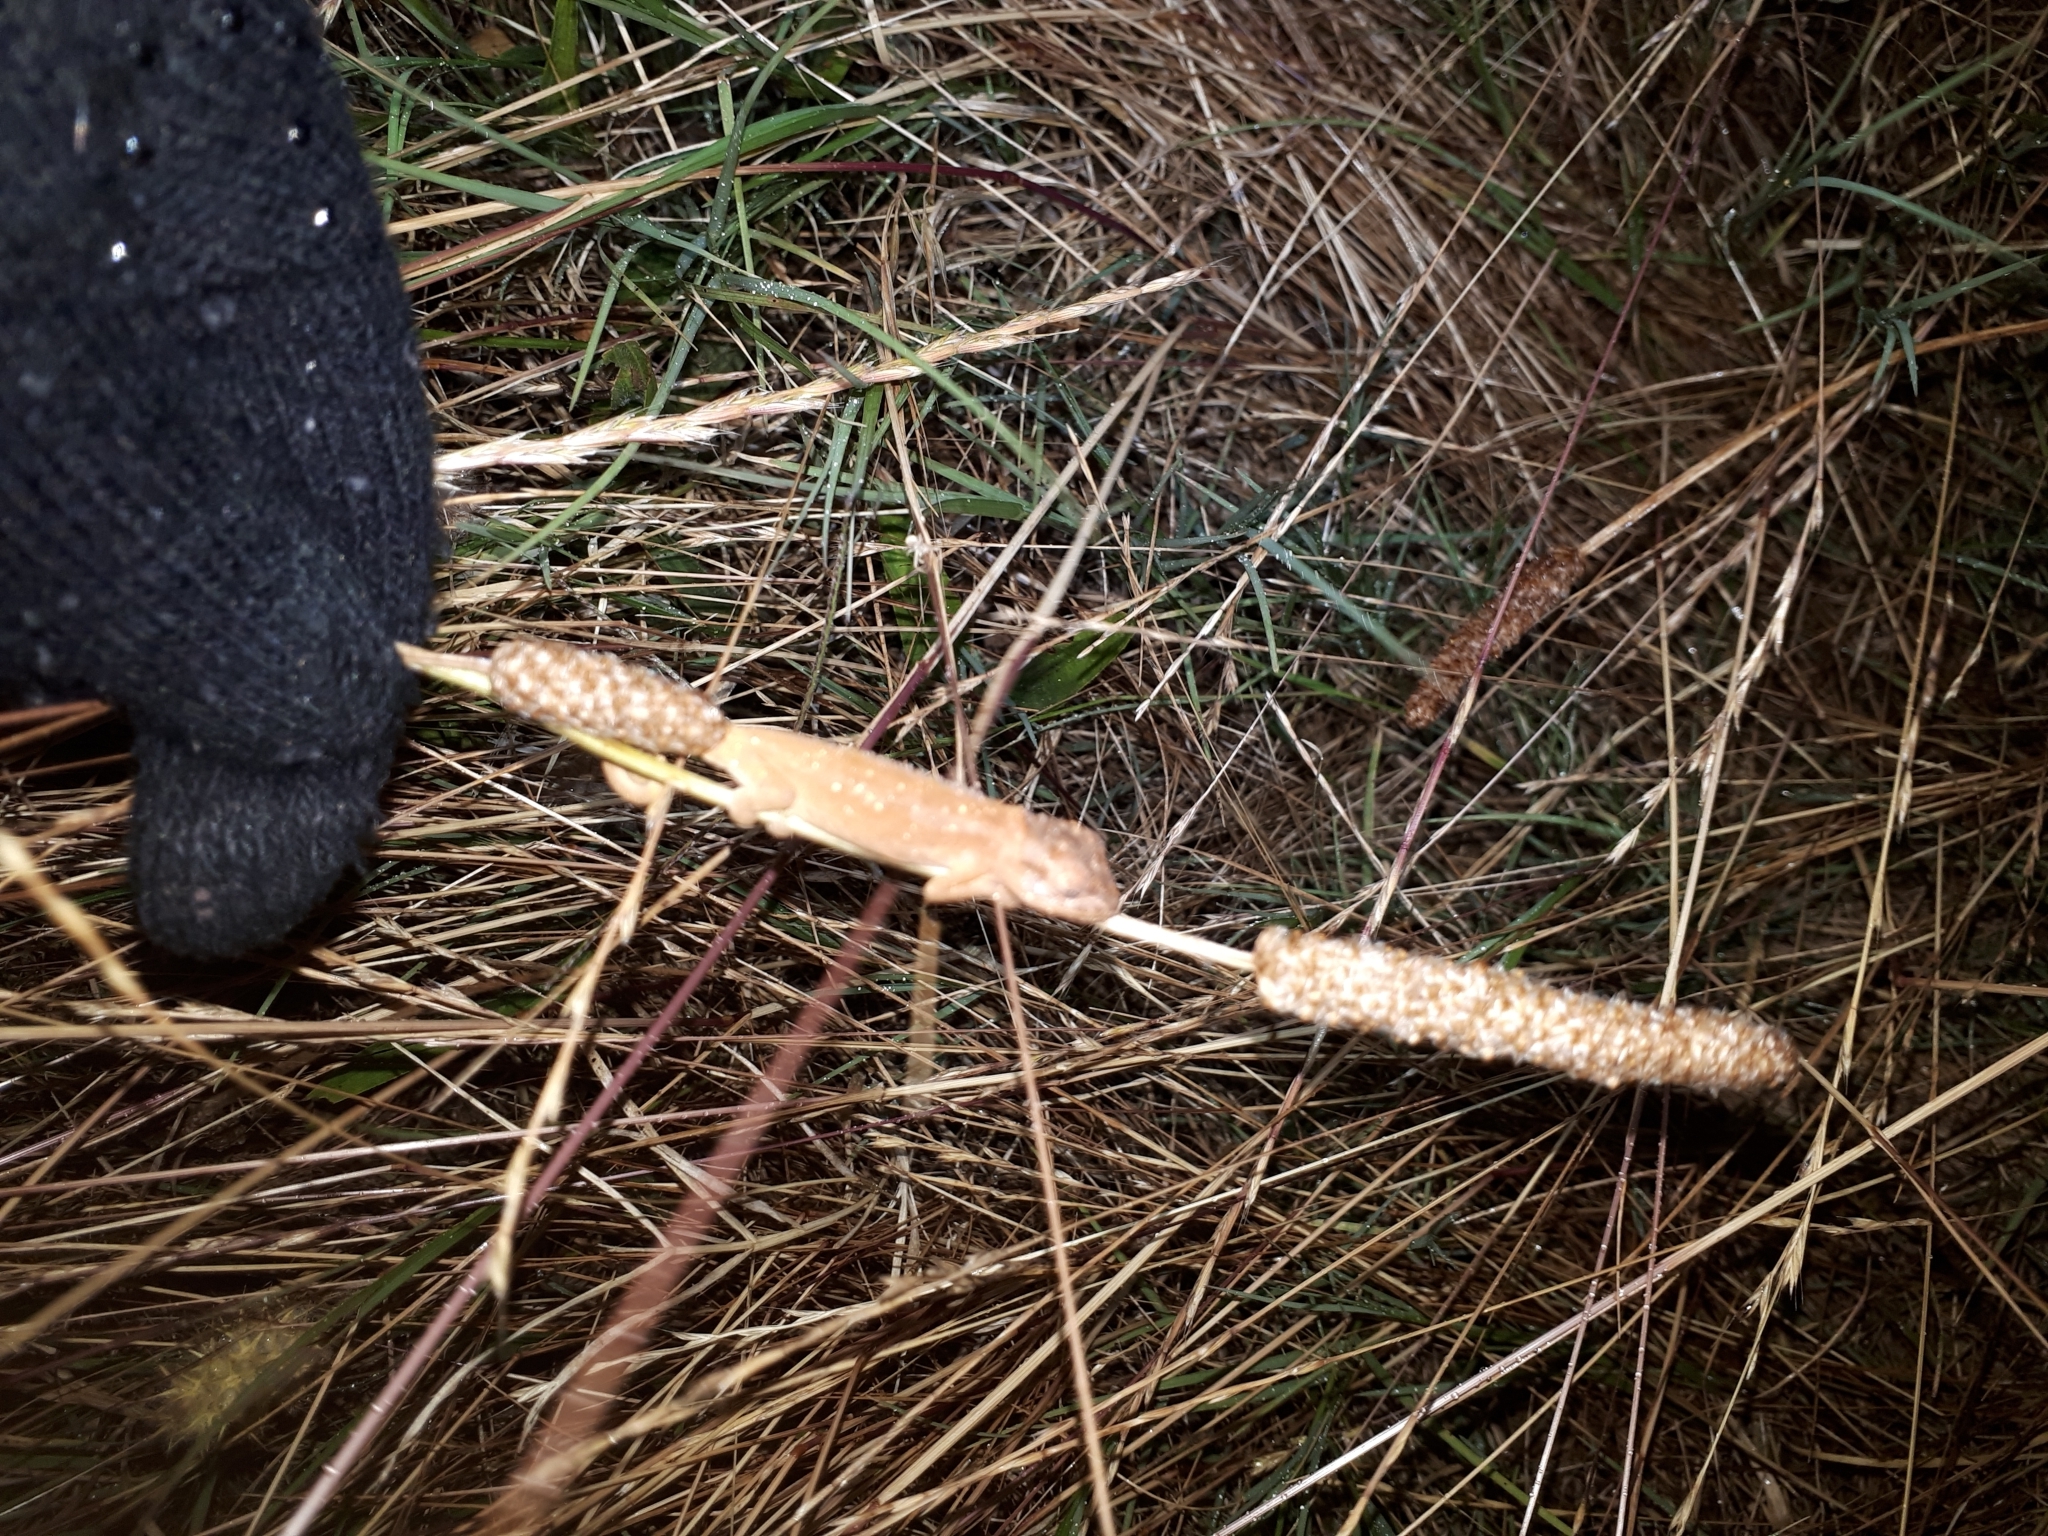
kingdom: Animalia
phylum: Chordata
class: Squamata
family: Chamaeleonidae
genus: Bradypodion
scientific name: Bradypodion pumilum
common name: Cape dwarf chameleon
